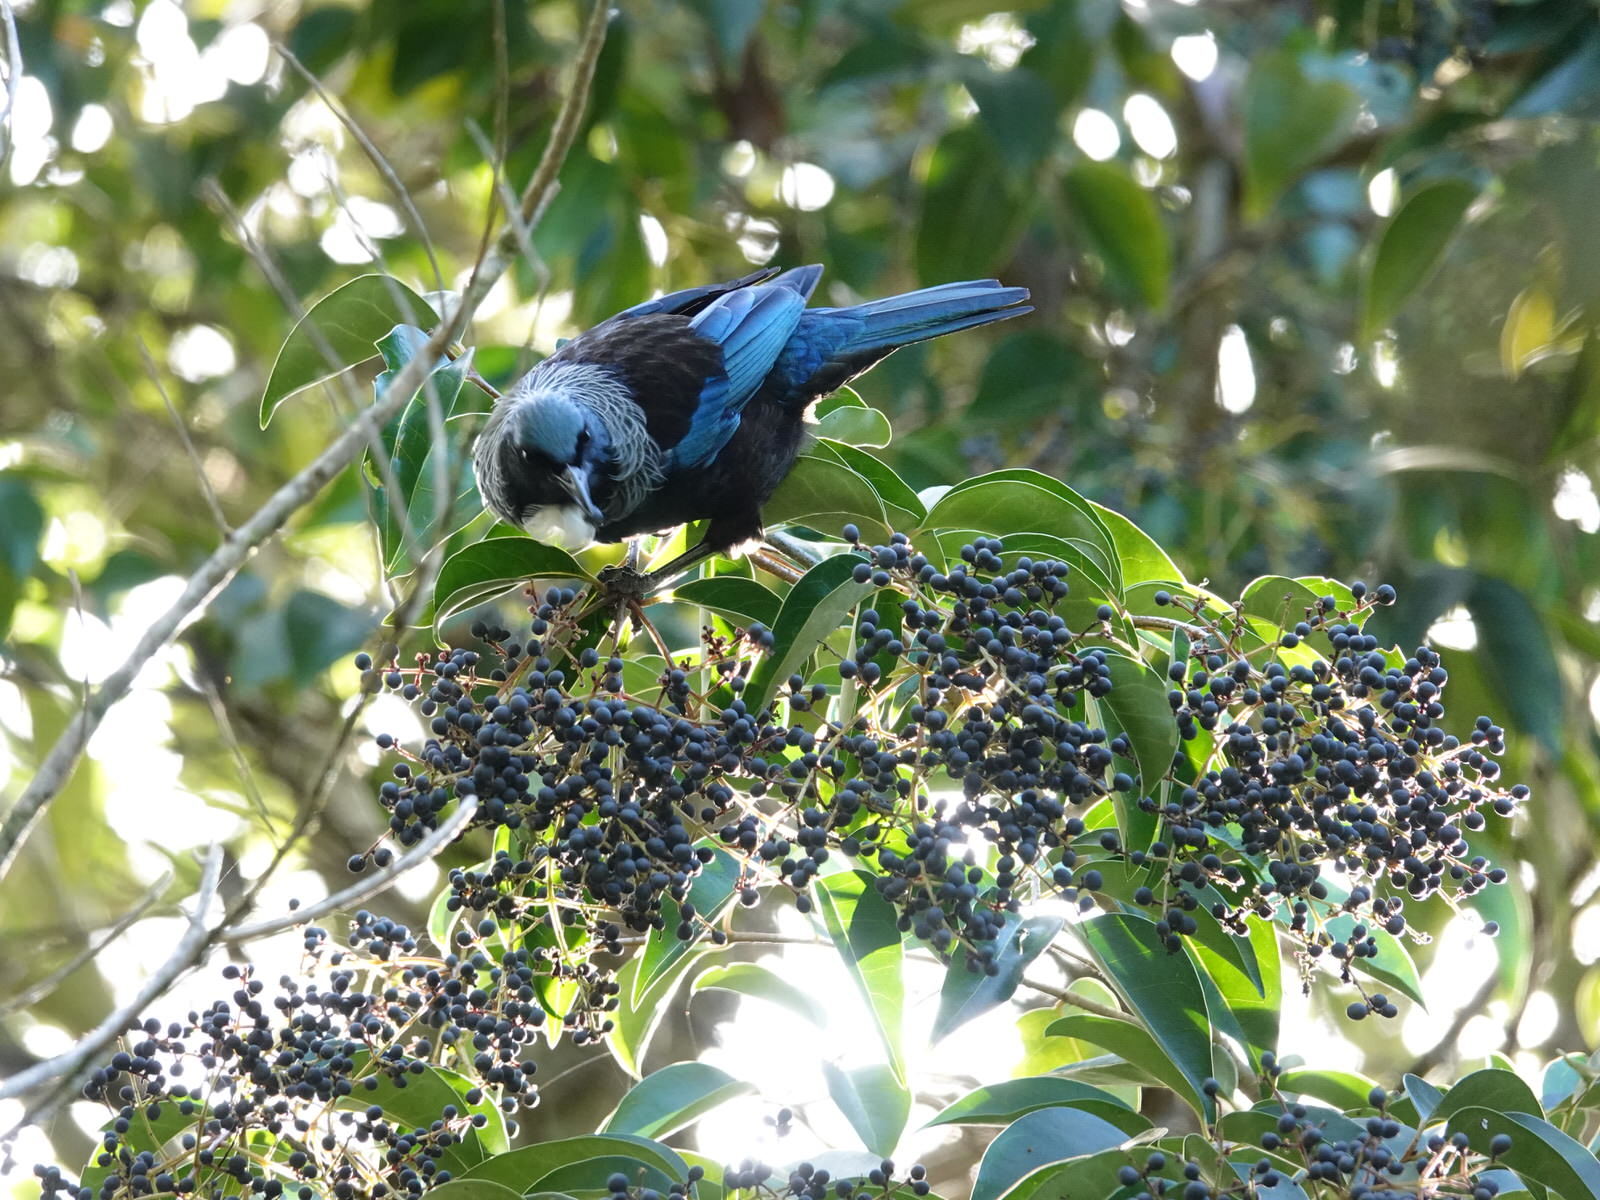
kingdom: Animalia
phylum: Chordata
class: Aves
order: Passeriformes
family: Meliphagidae
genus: Prosthemadera
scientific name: Prosthemadera novaeseelandiae
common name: Tui
